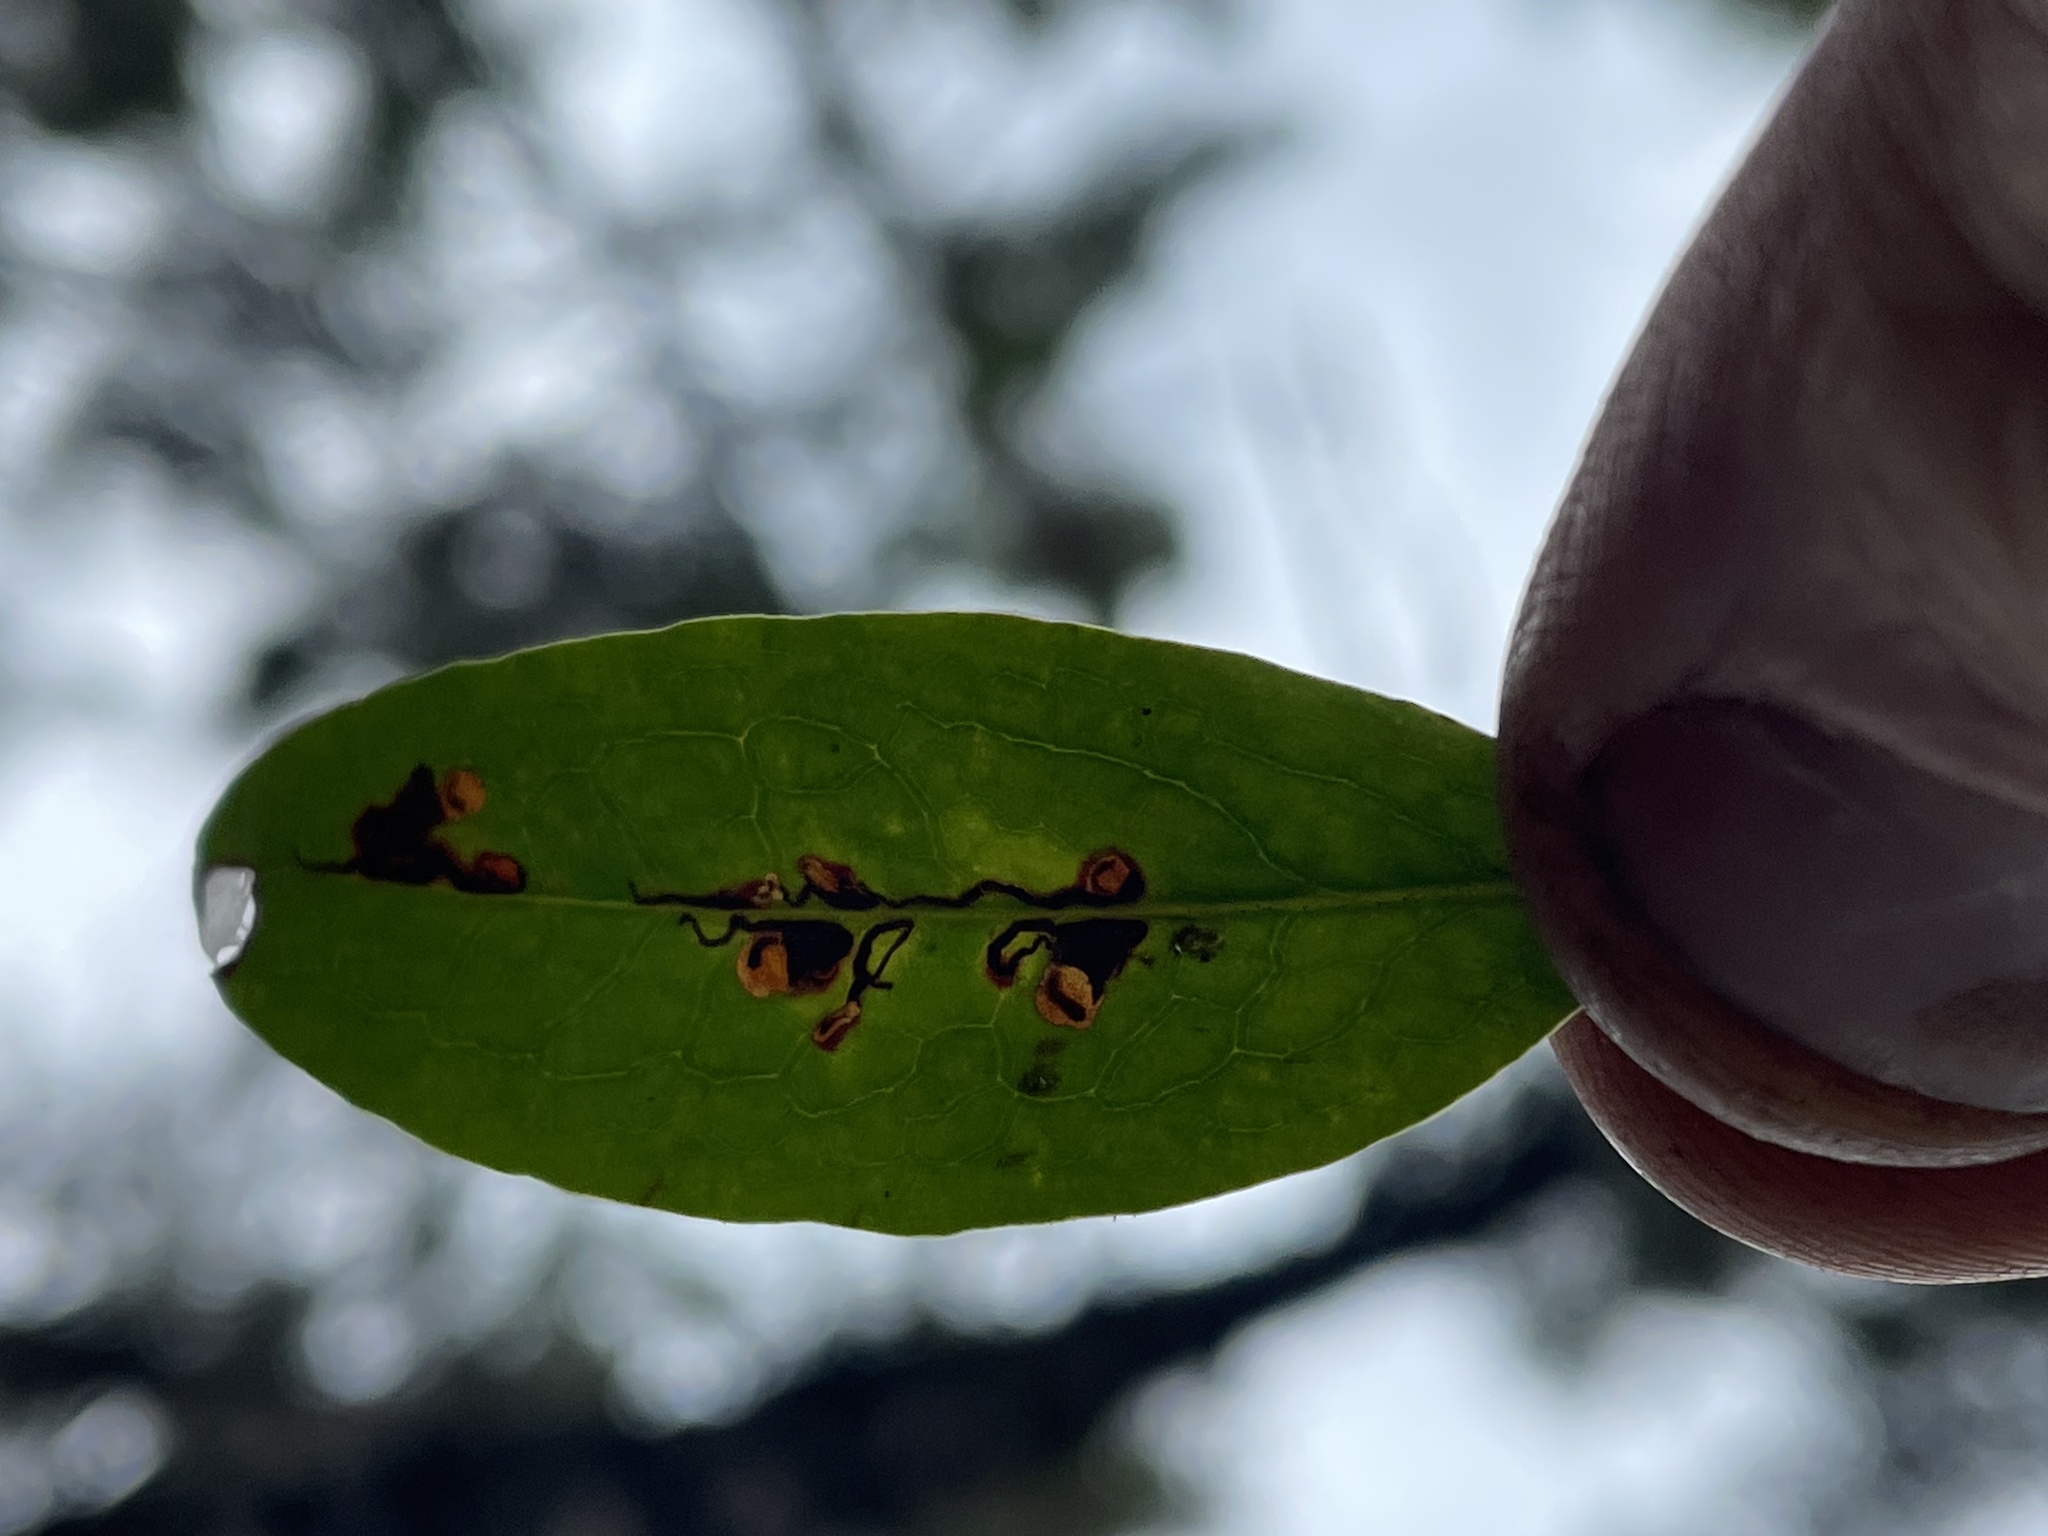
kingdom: Animalia
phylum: Arthropoda
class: Insecta
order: Lepidoptera
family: Heliozelidae
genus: Coptodisca
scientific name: Coptodisca kalmiella
